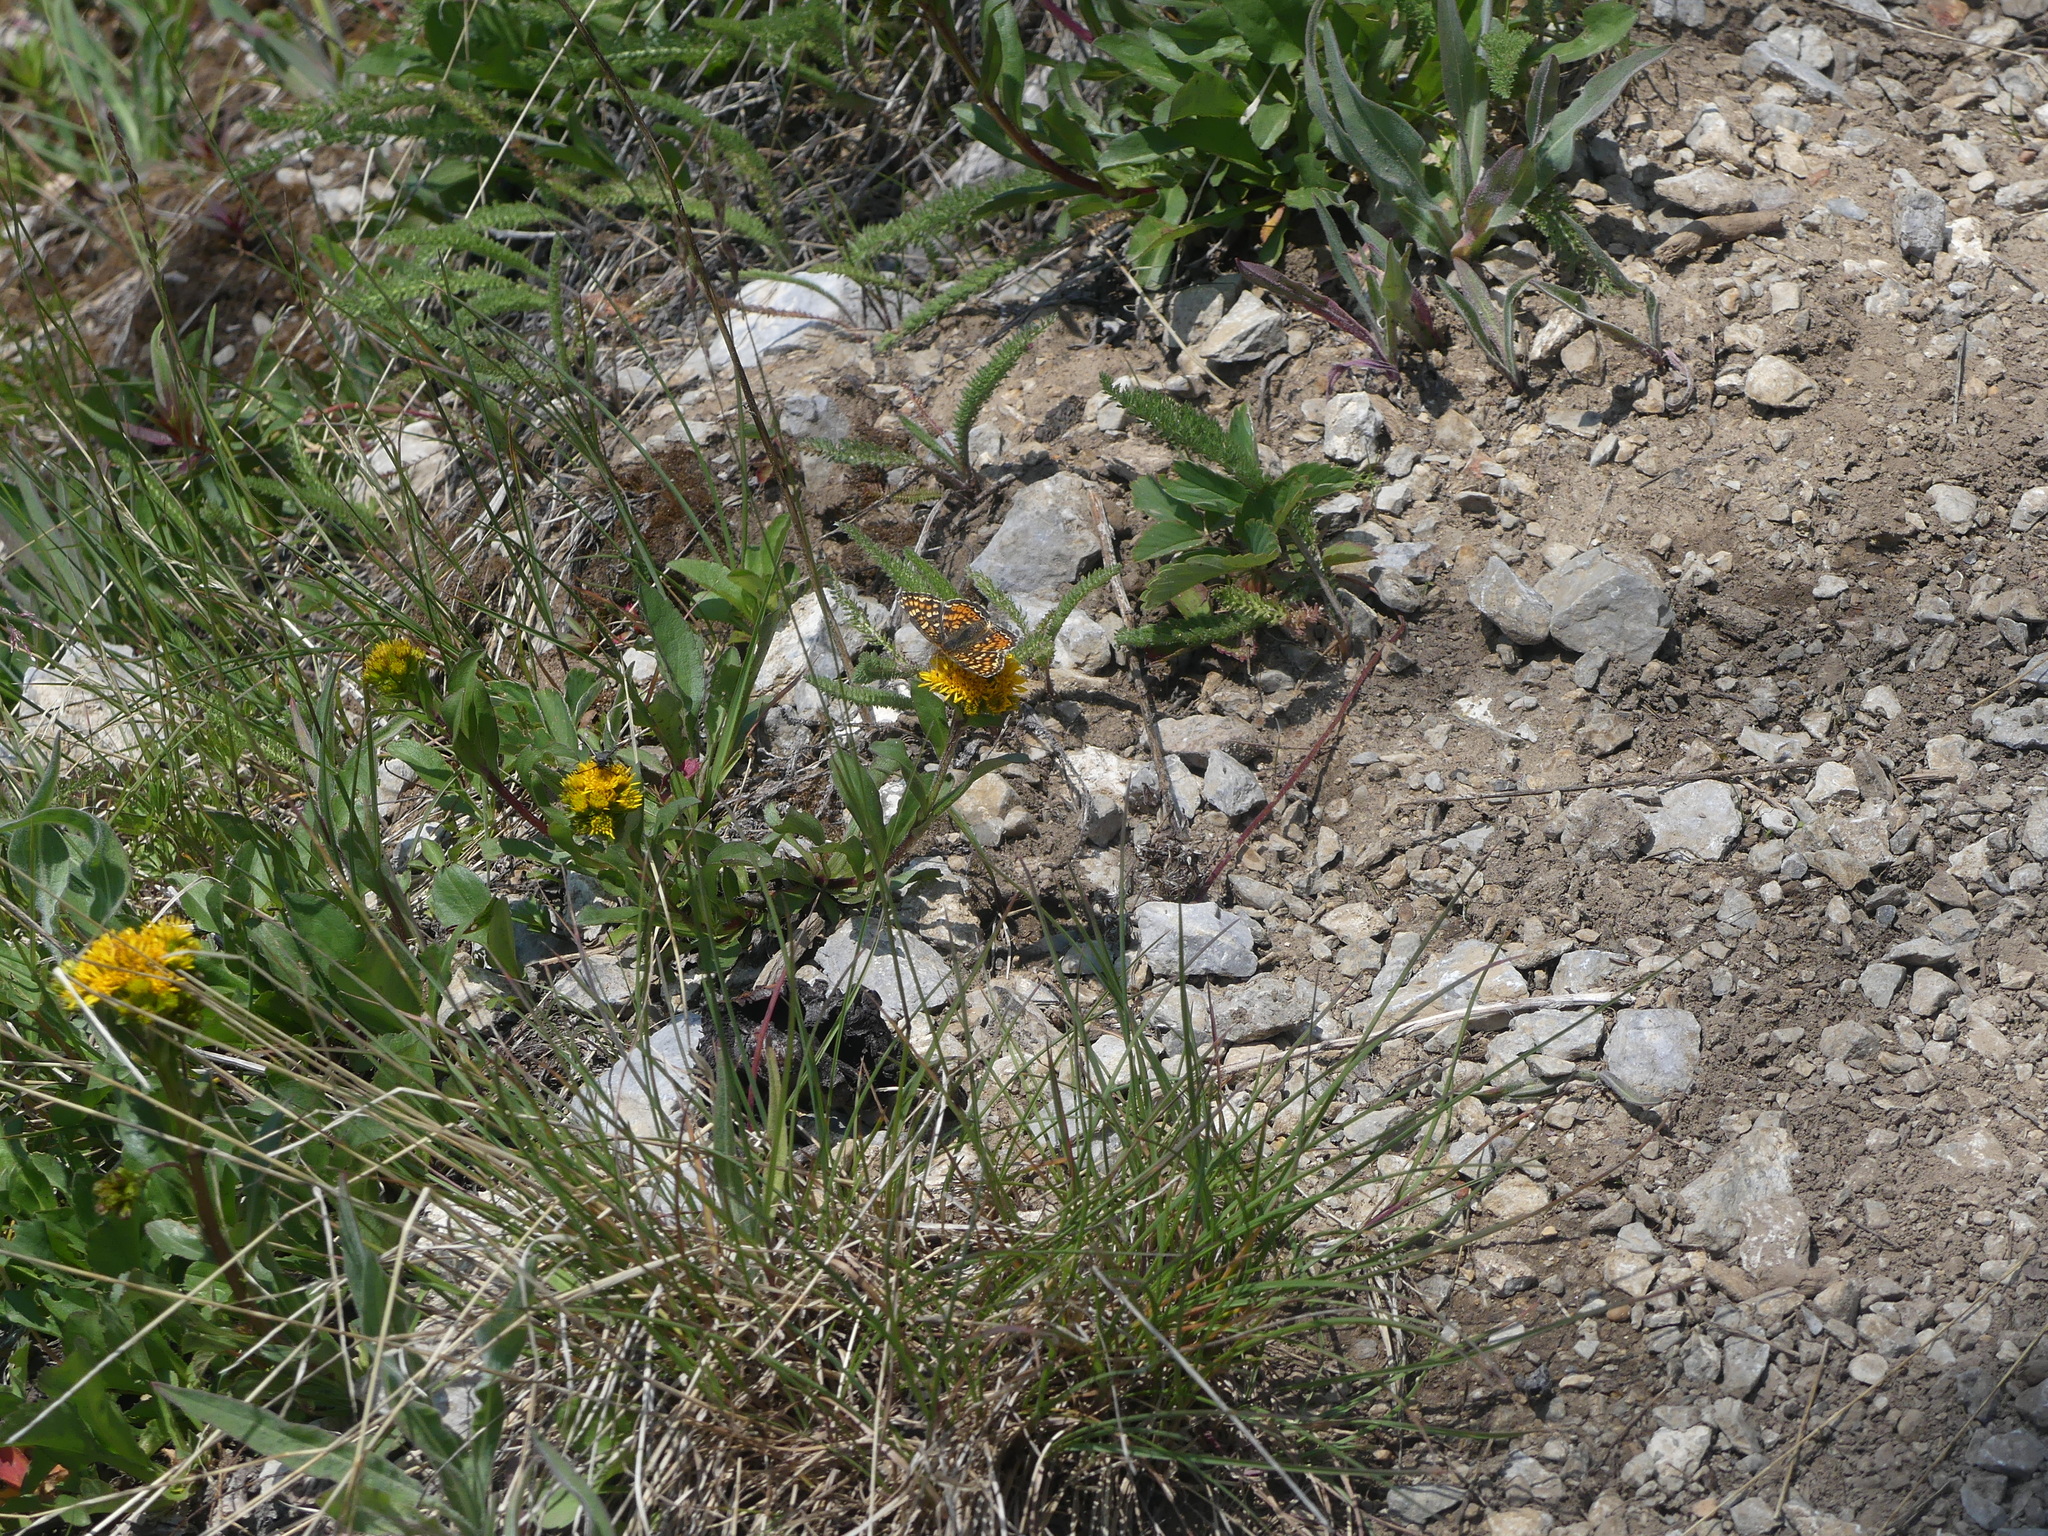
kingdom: Animalia
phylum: Arthropoda
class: Insecta
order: Lepidoptera
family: Nymphalidae
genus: Phyciodes
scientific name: Phyciodes tharos
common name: Pearl crescent
